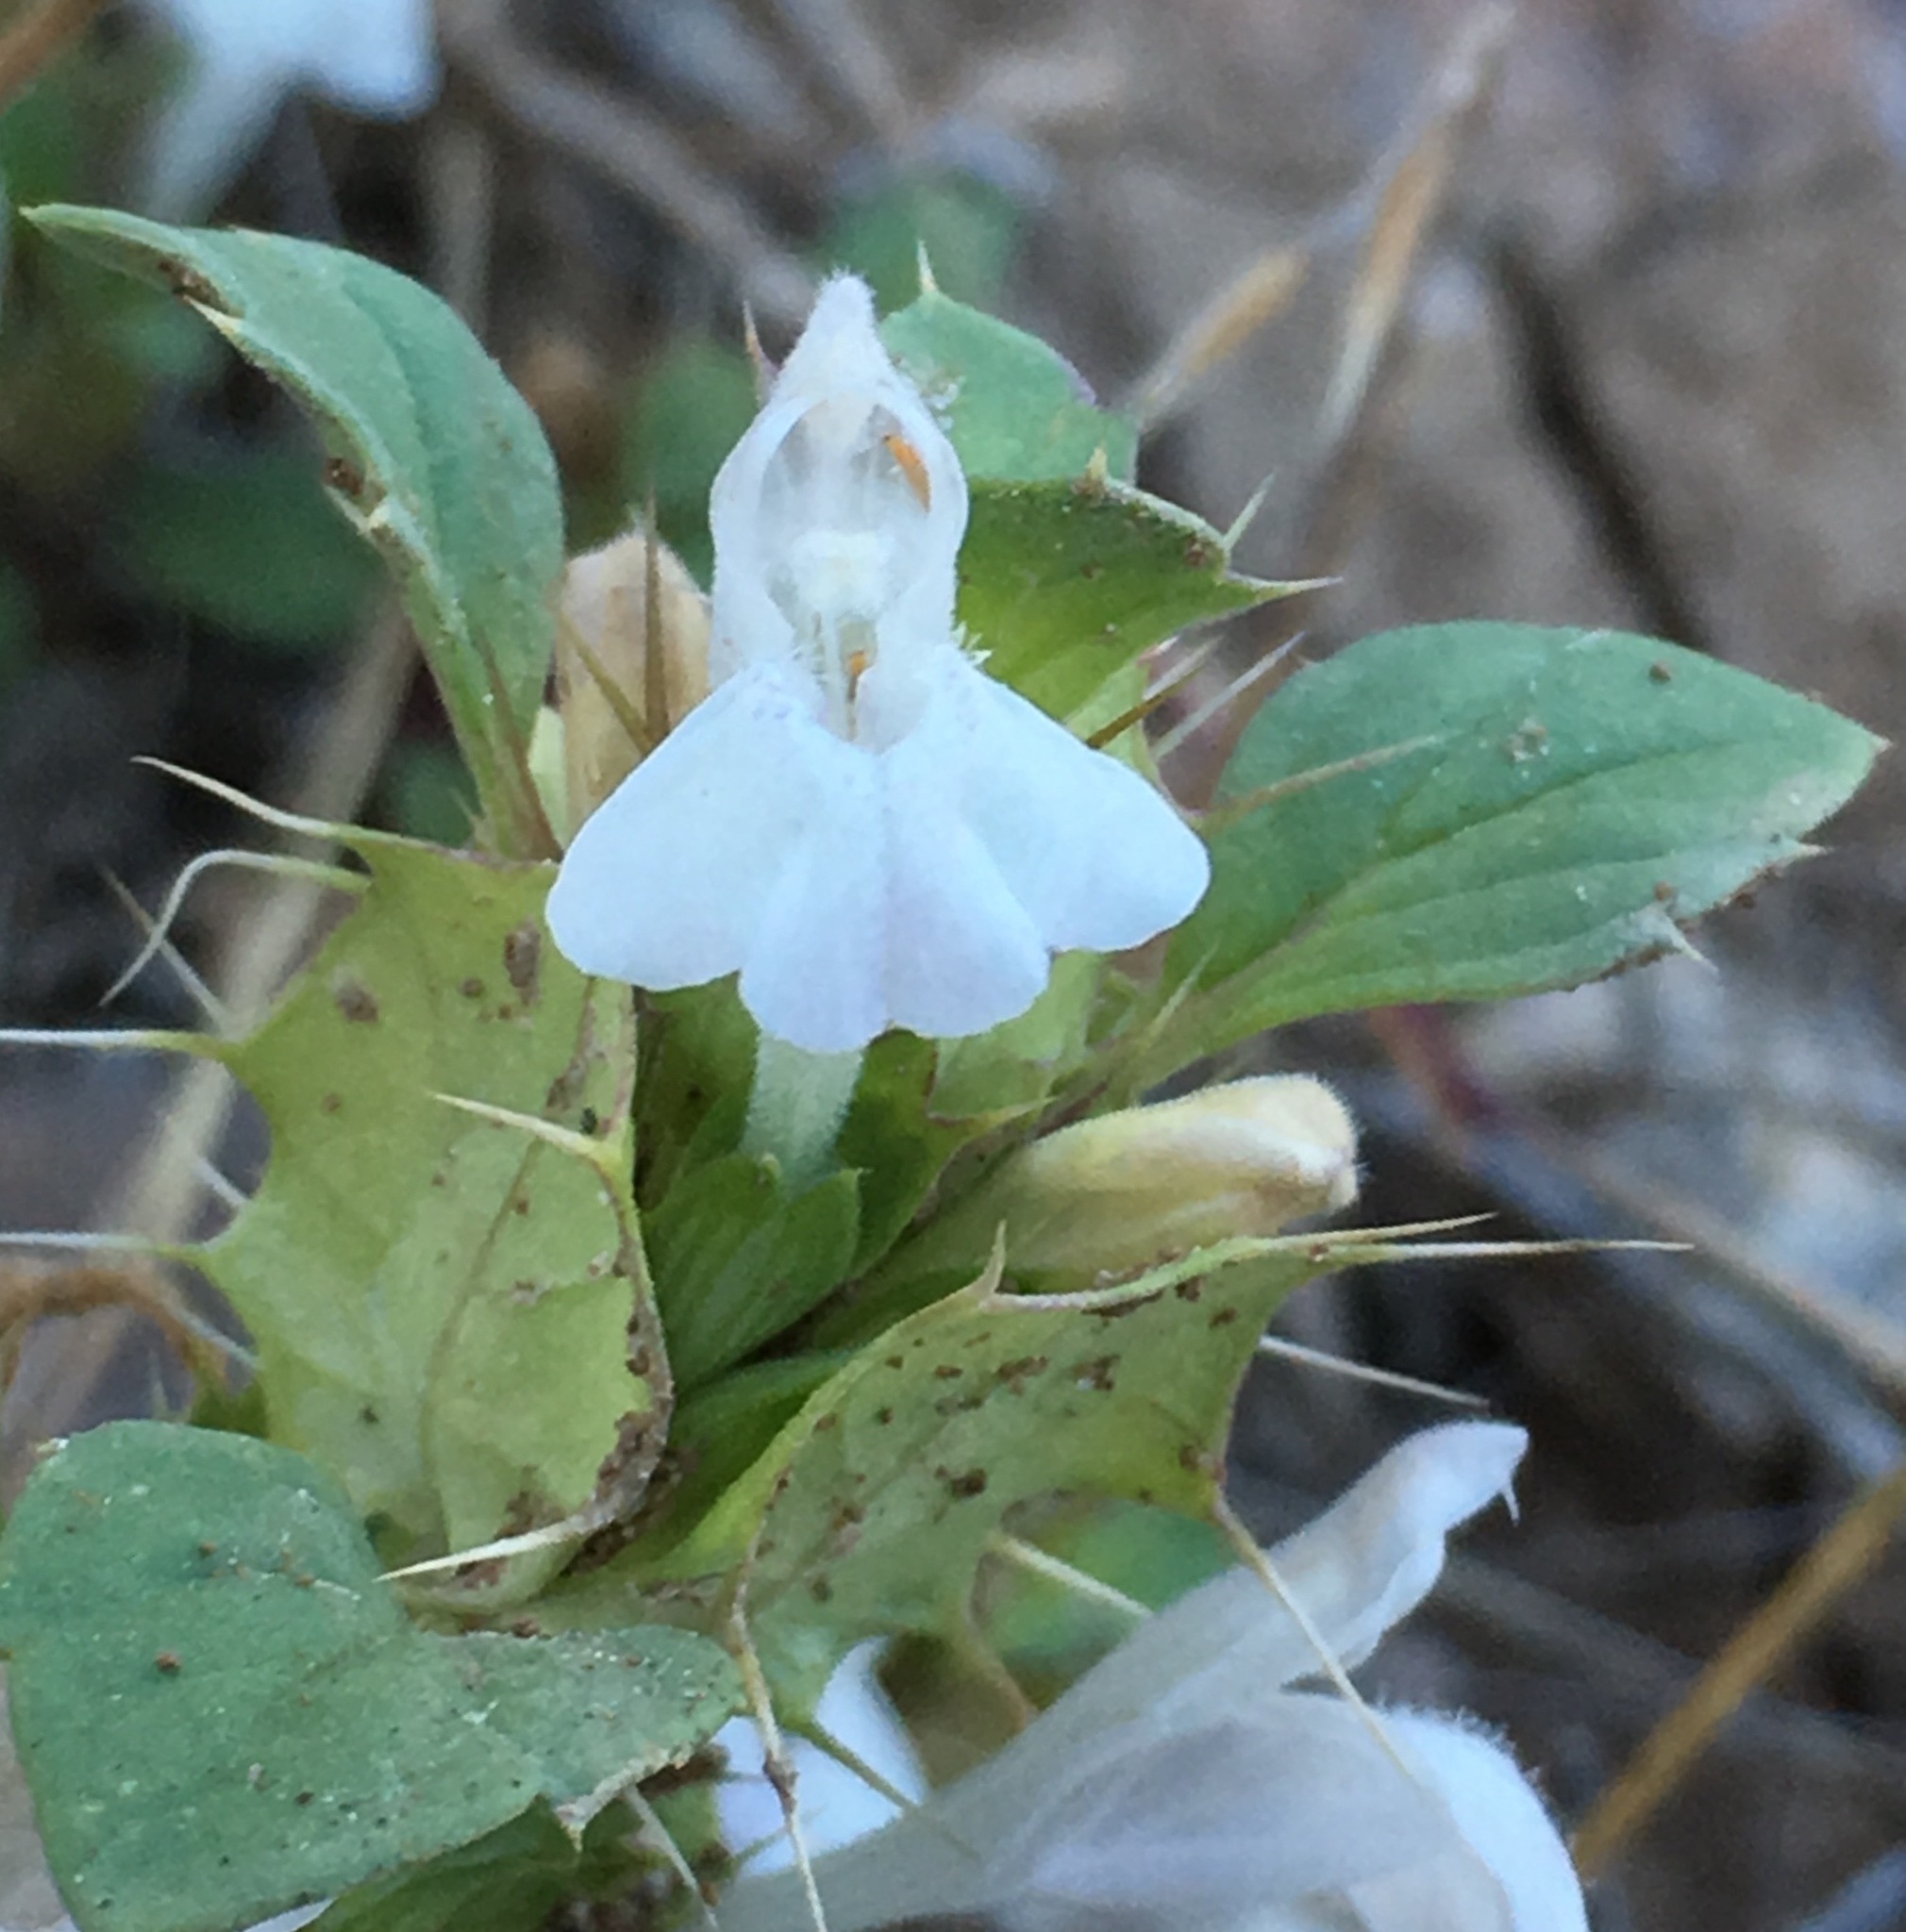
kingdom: Plantae
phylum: Tracheophyta
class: Magnoliopsida
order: Lamiales
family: Lamiaceae
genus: Acanthomintha
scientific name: Acanthomintha obovata
